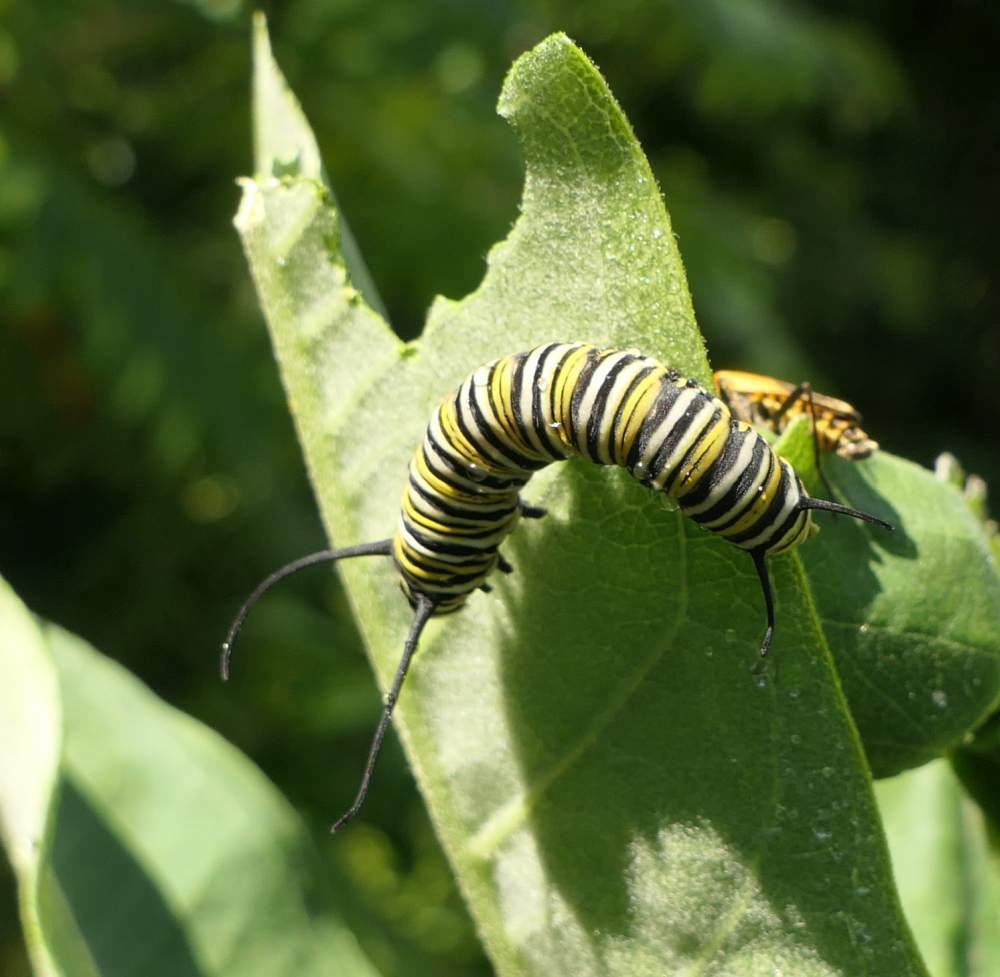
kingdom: Animalia
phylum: Arthropoda
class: Insecta
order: Lepidoptera
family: Nymphalidae
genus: Danaus
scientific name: Danaus plexippus
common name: Monarch
